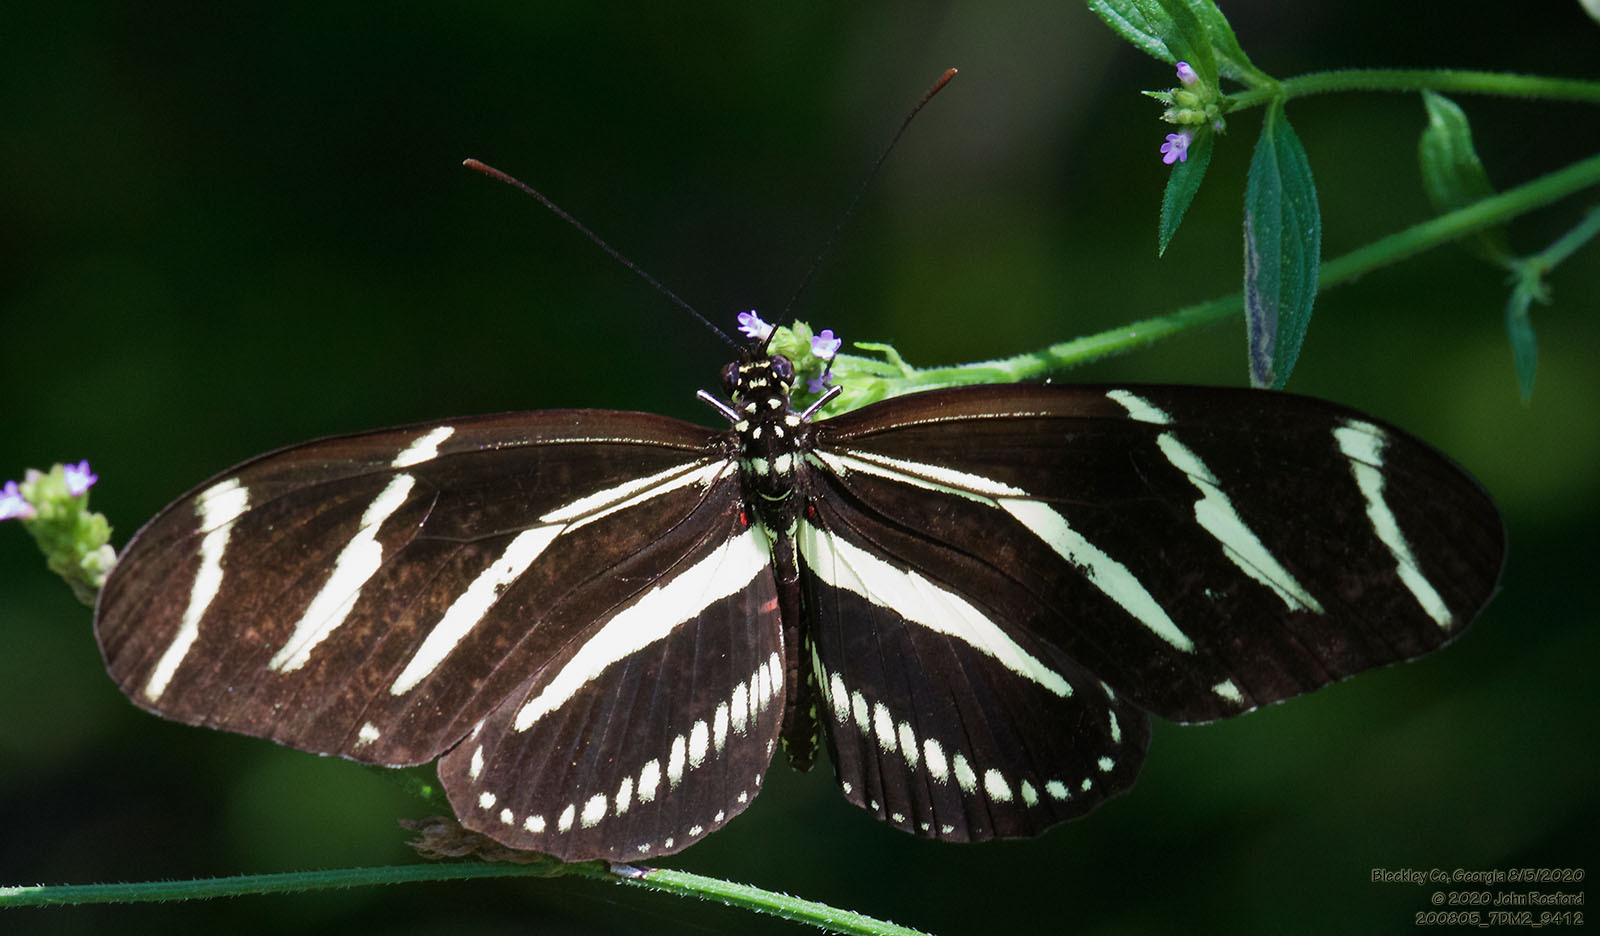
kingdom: Animalia
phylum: Arthropoda
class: Insecta
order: Lepidoptera
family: Nymphalidae
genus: Heliconius
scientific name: Heliconius charithonia
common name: Zebra long wing
